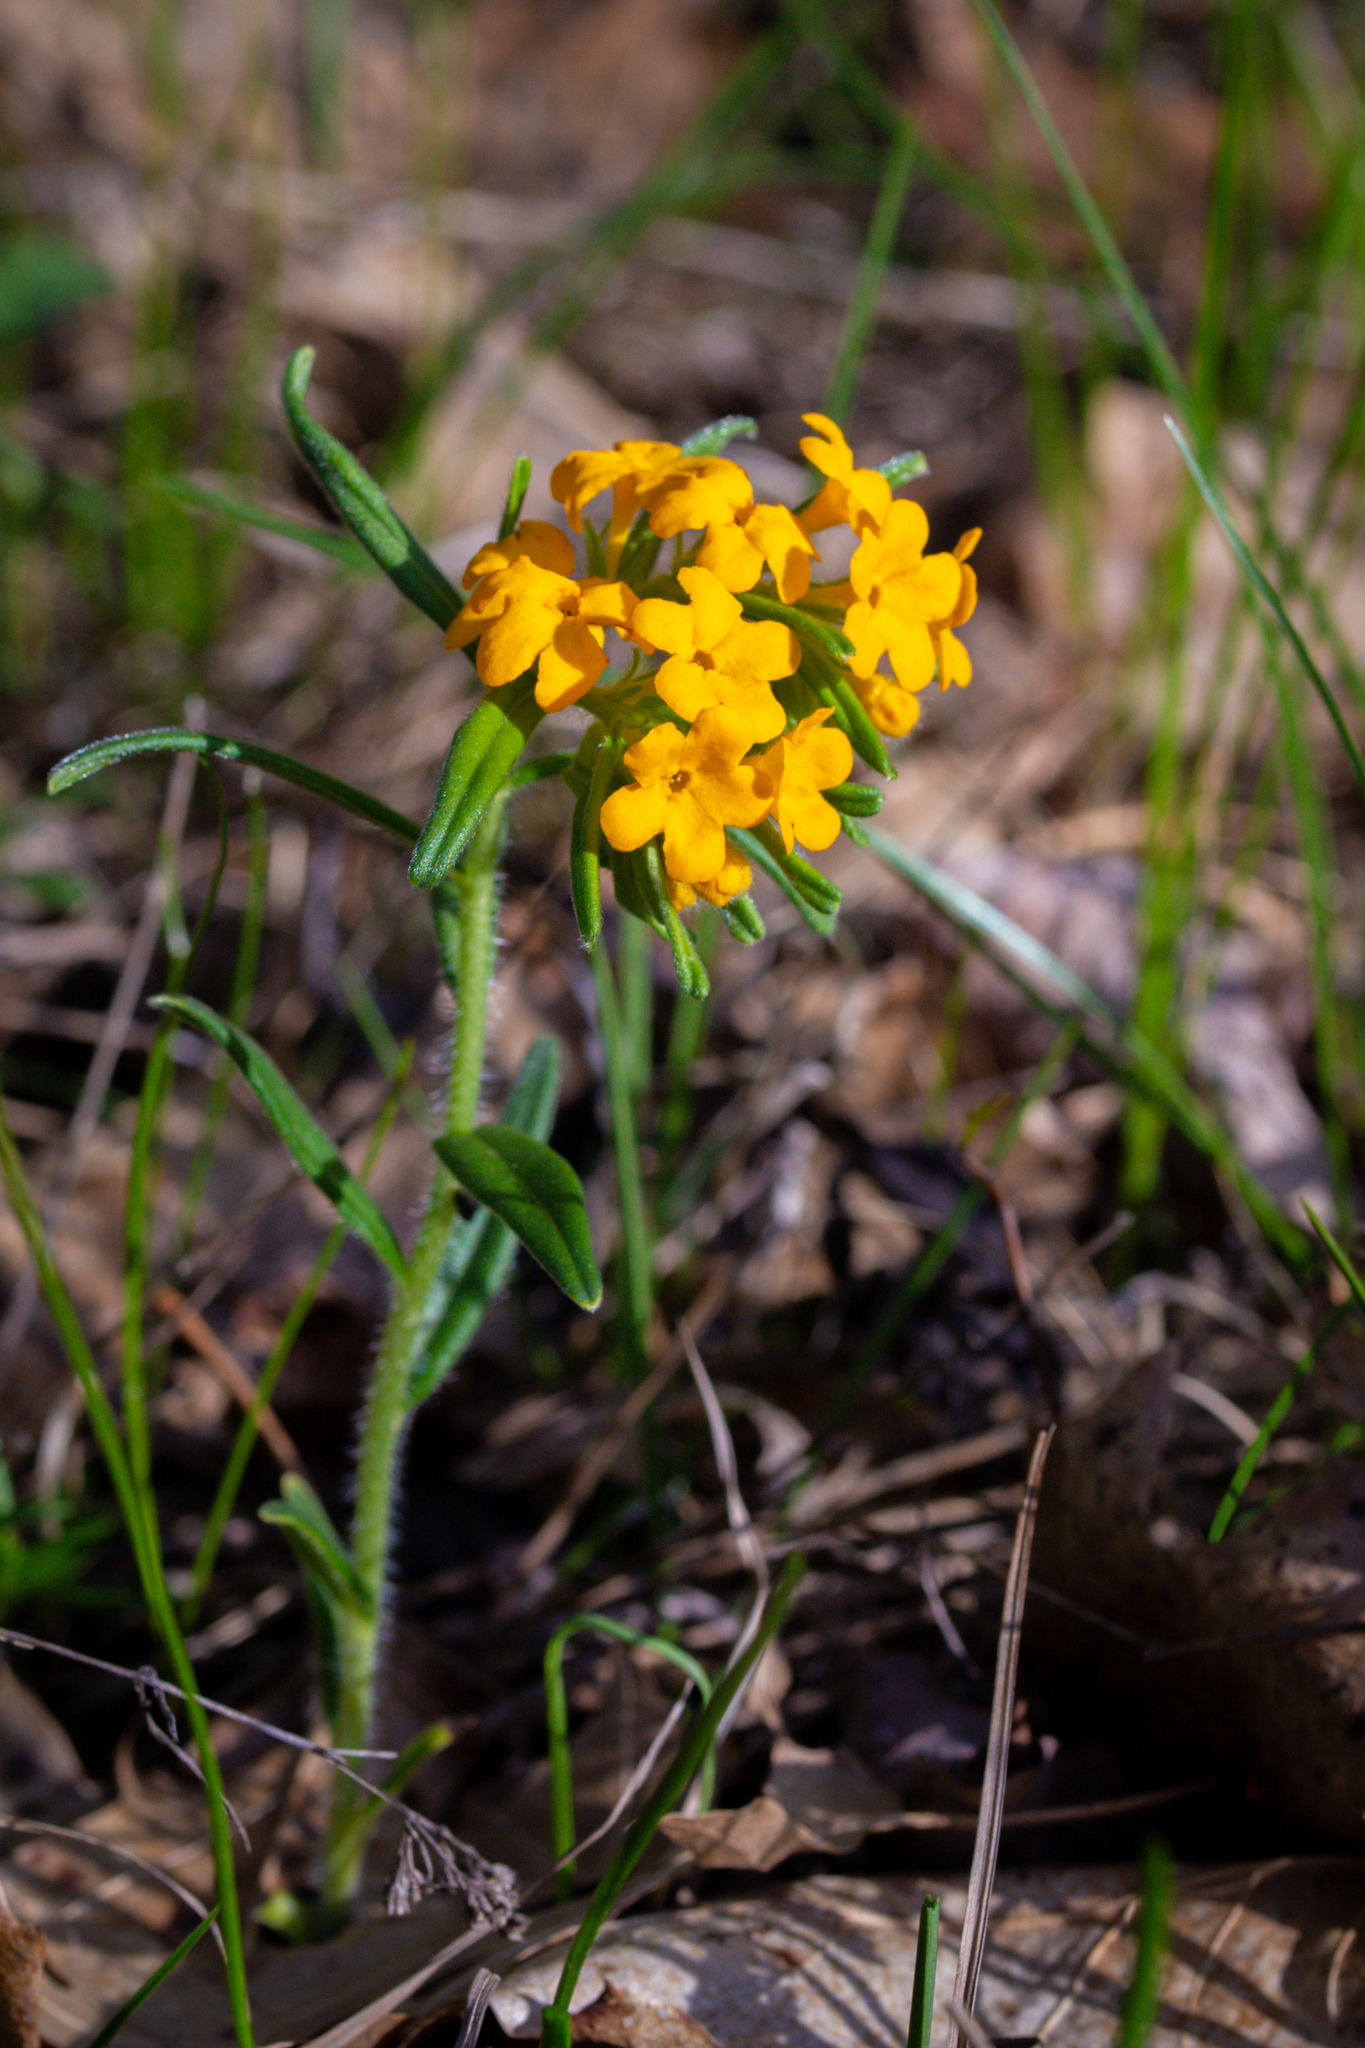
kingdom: Plantae
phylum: Tracheophyta
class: Magnoliopsida
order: Boraginales
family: Boraginaceae
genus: Lithospermum
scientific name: Lithospermum canescens
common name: Hoary puccoon
